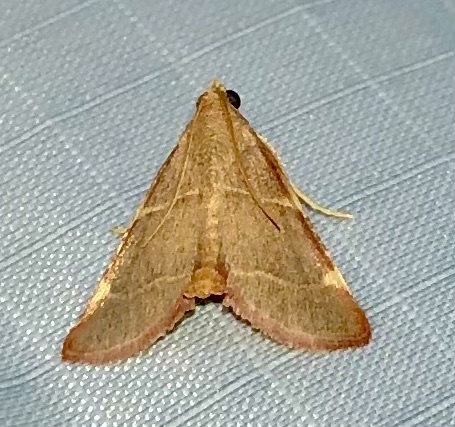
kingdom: Animalia
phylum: Arthropoda
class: Insecta
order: Lepidoptera
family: Pyralidae
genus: Hypsopygia
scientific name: Hypsopygia binodulalis
